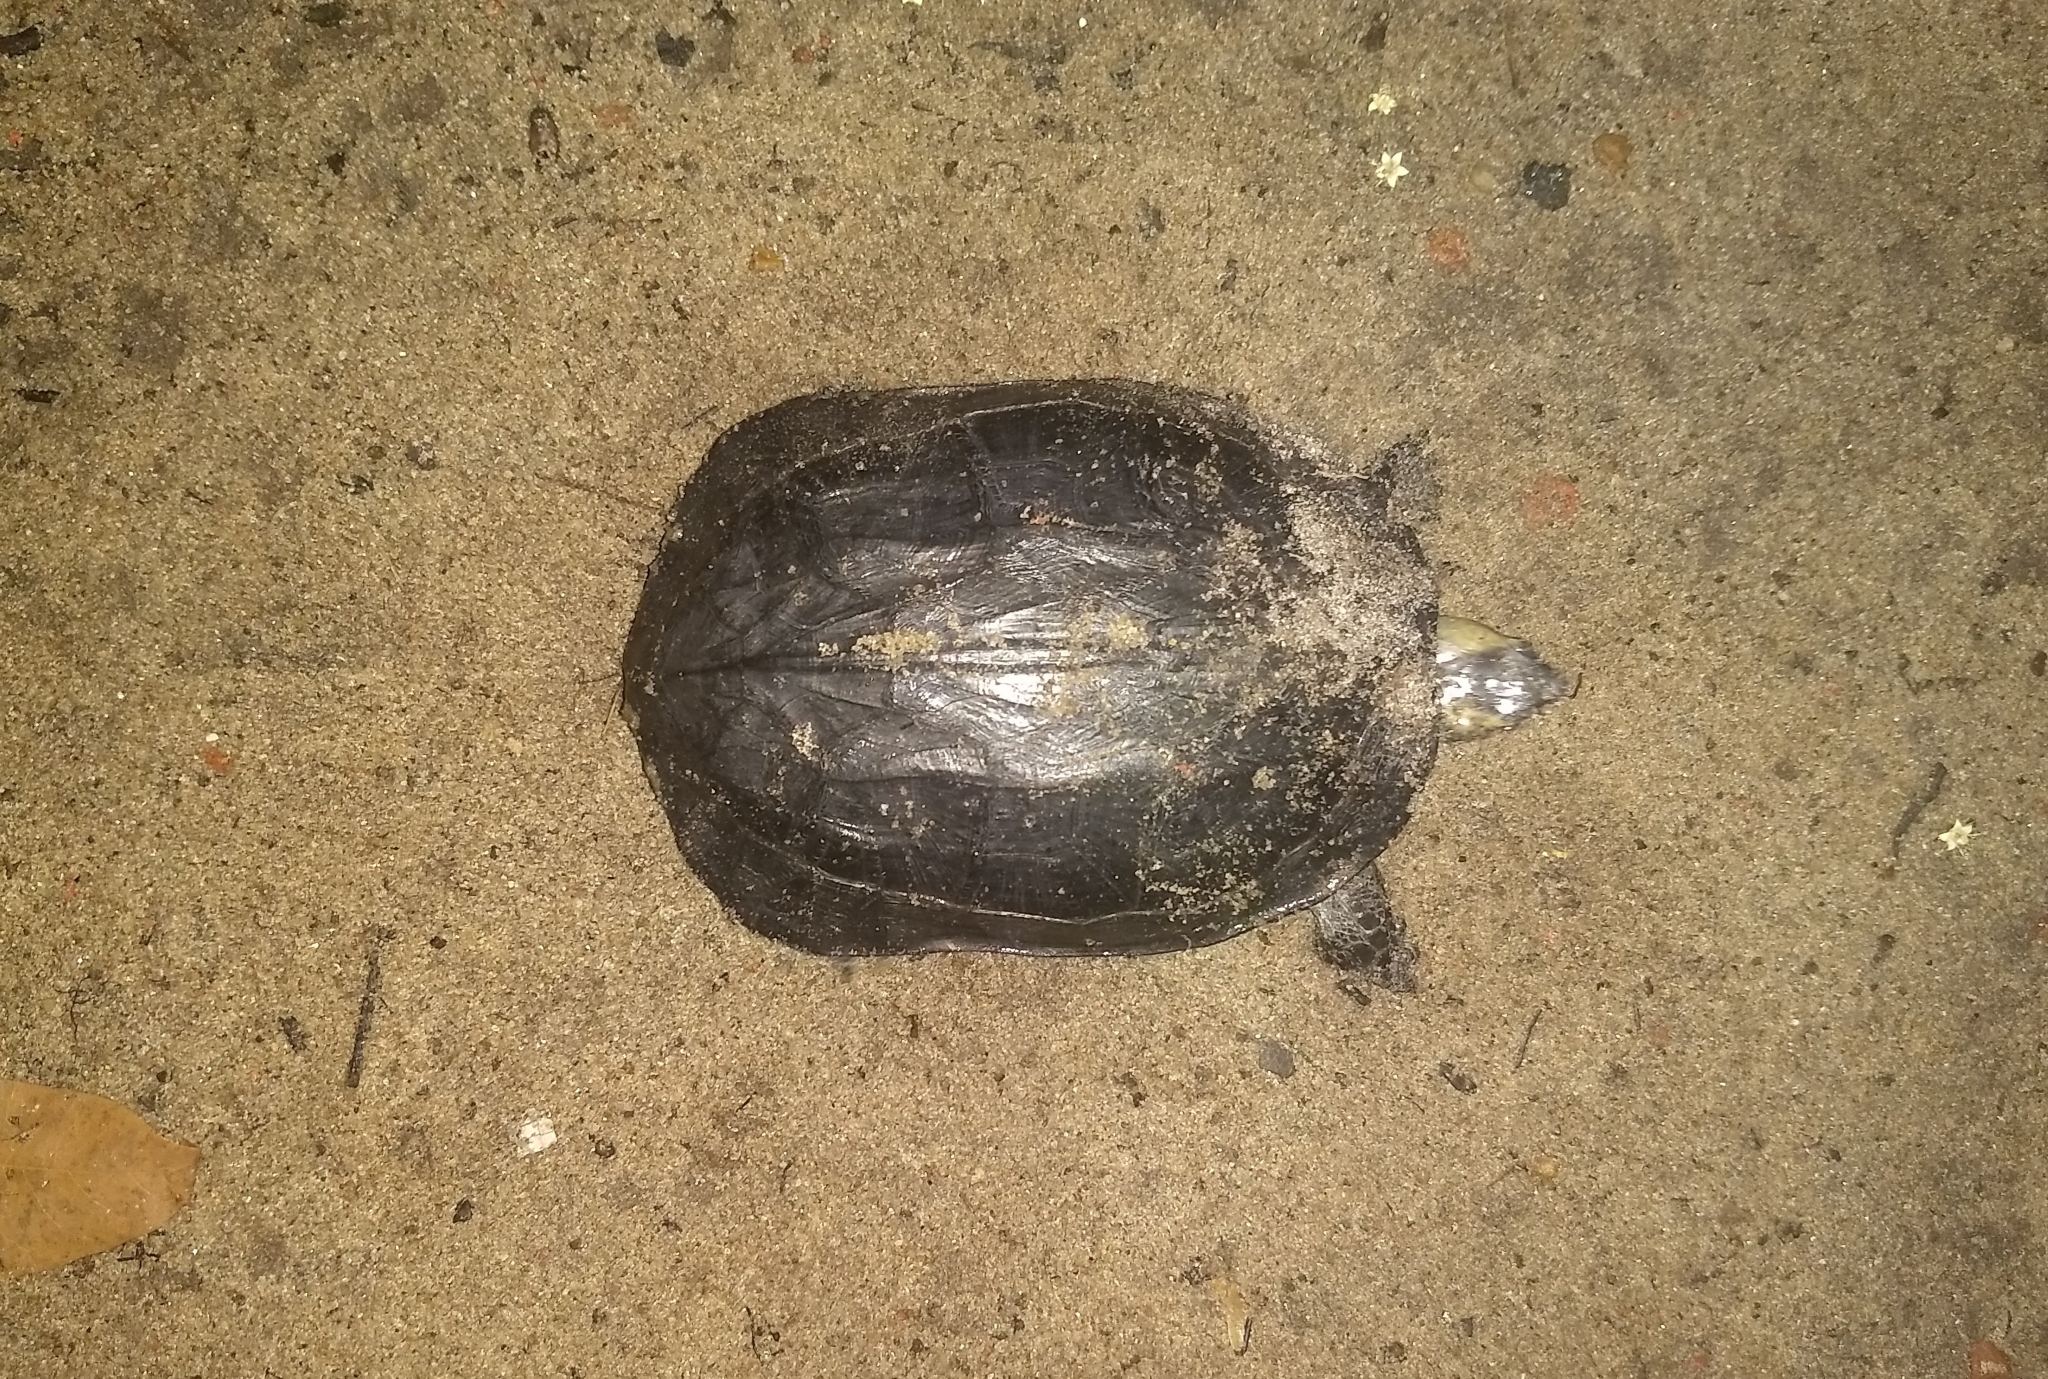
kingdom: Animalia
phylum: Chordata
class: Testudines
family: Geoemydidae
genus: Melanochelys
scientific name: Melanochelys trijuga
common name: Indian black turtle
